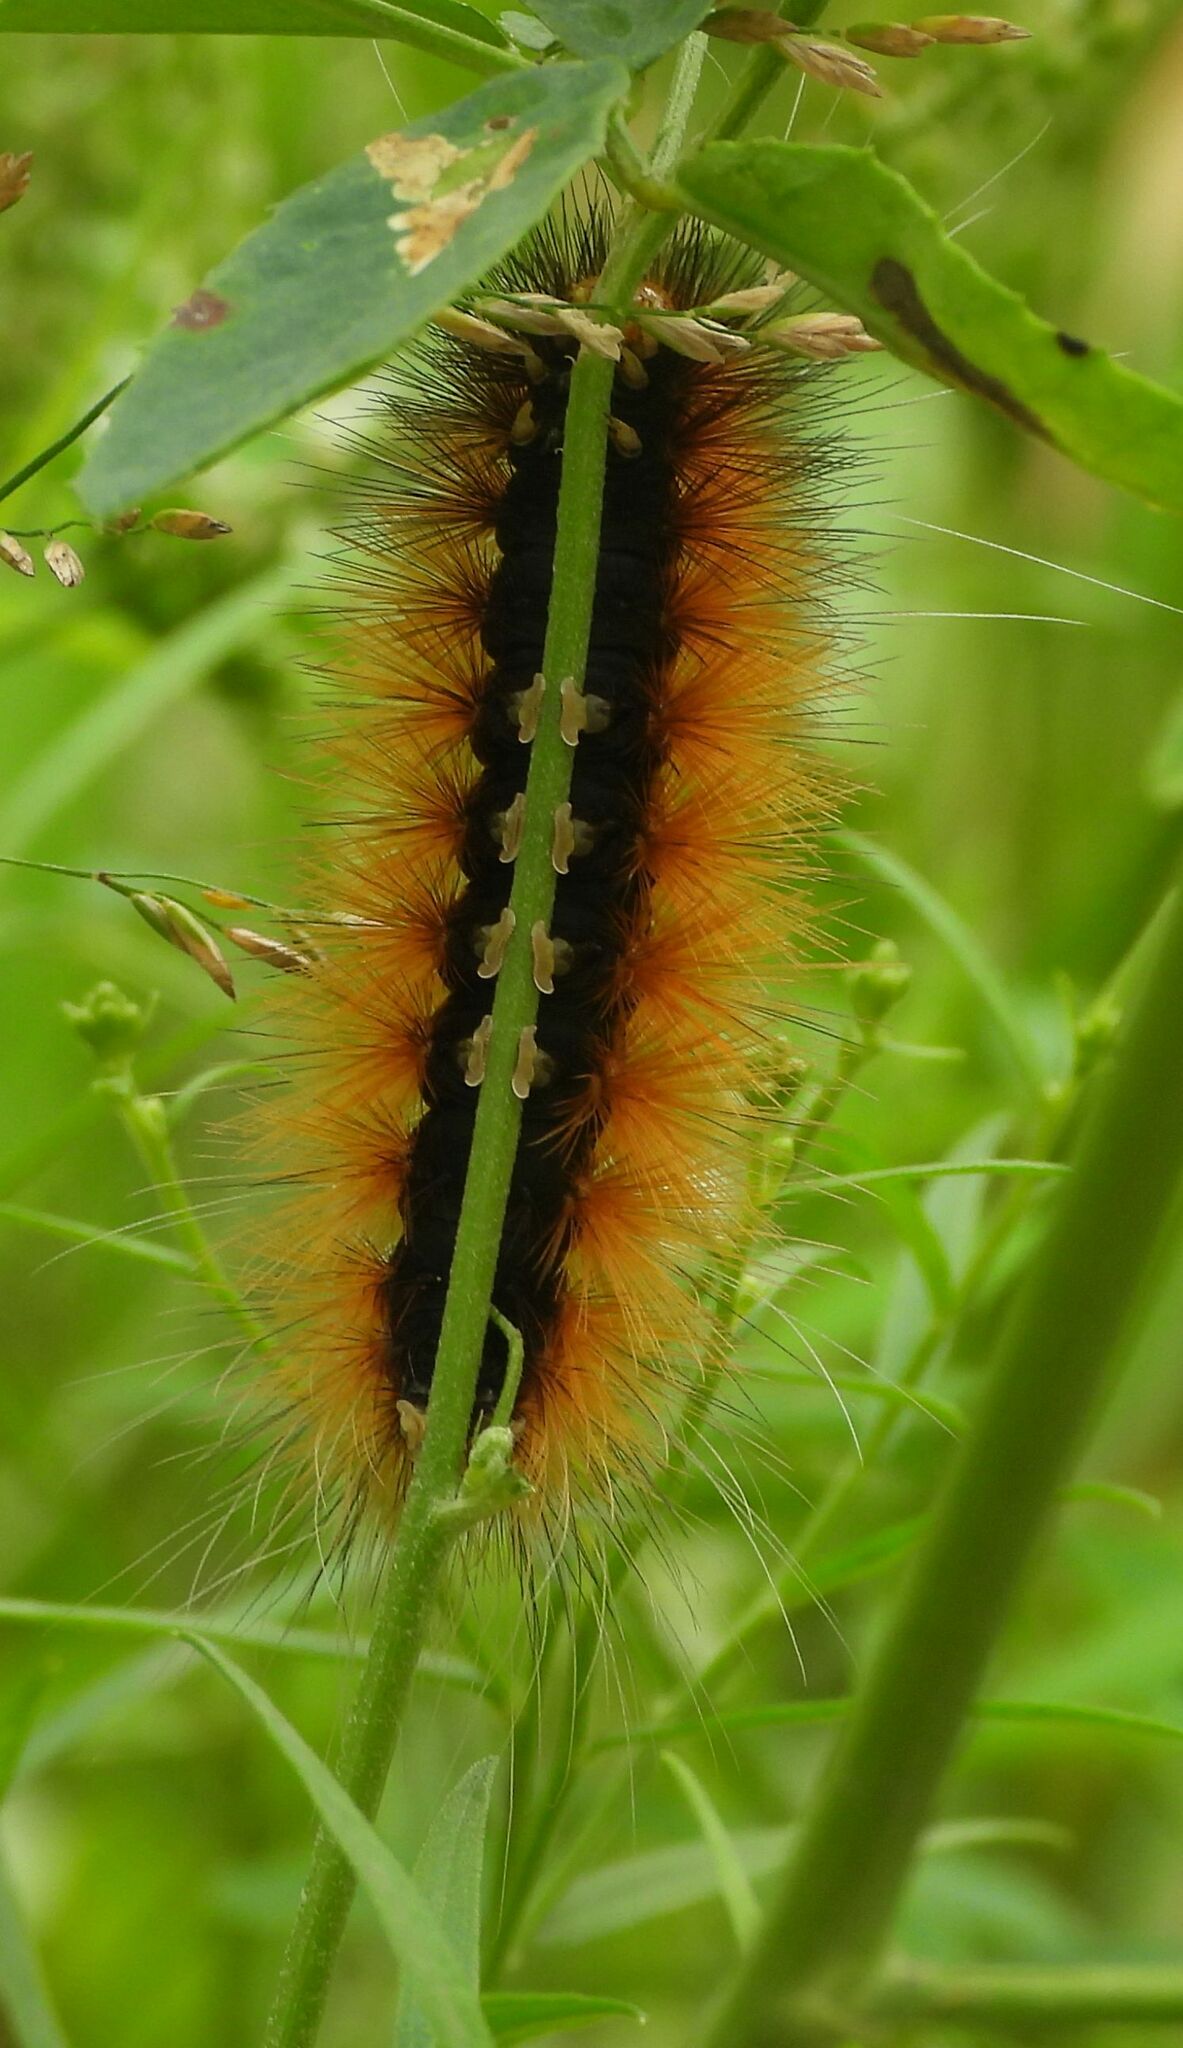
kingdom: Animalia
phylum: Arthropoda
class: Insecta
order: Lepidoptera
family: Erebidae
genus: Spilosoma
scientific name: Spilosoma virginica
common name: Virginia tiger moth
